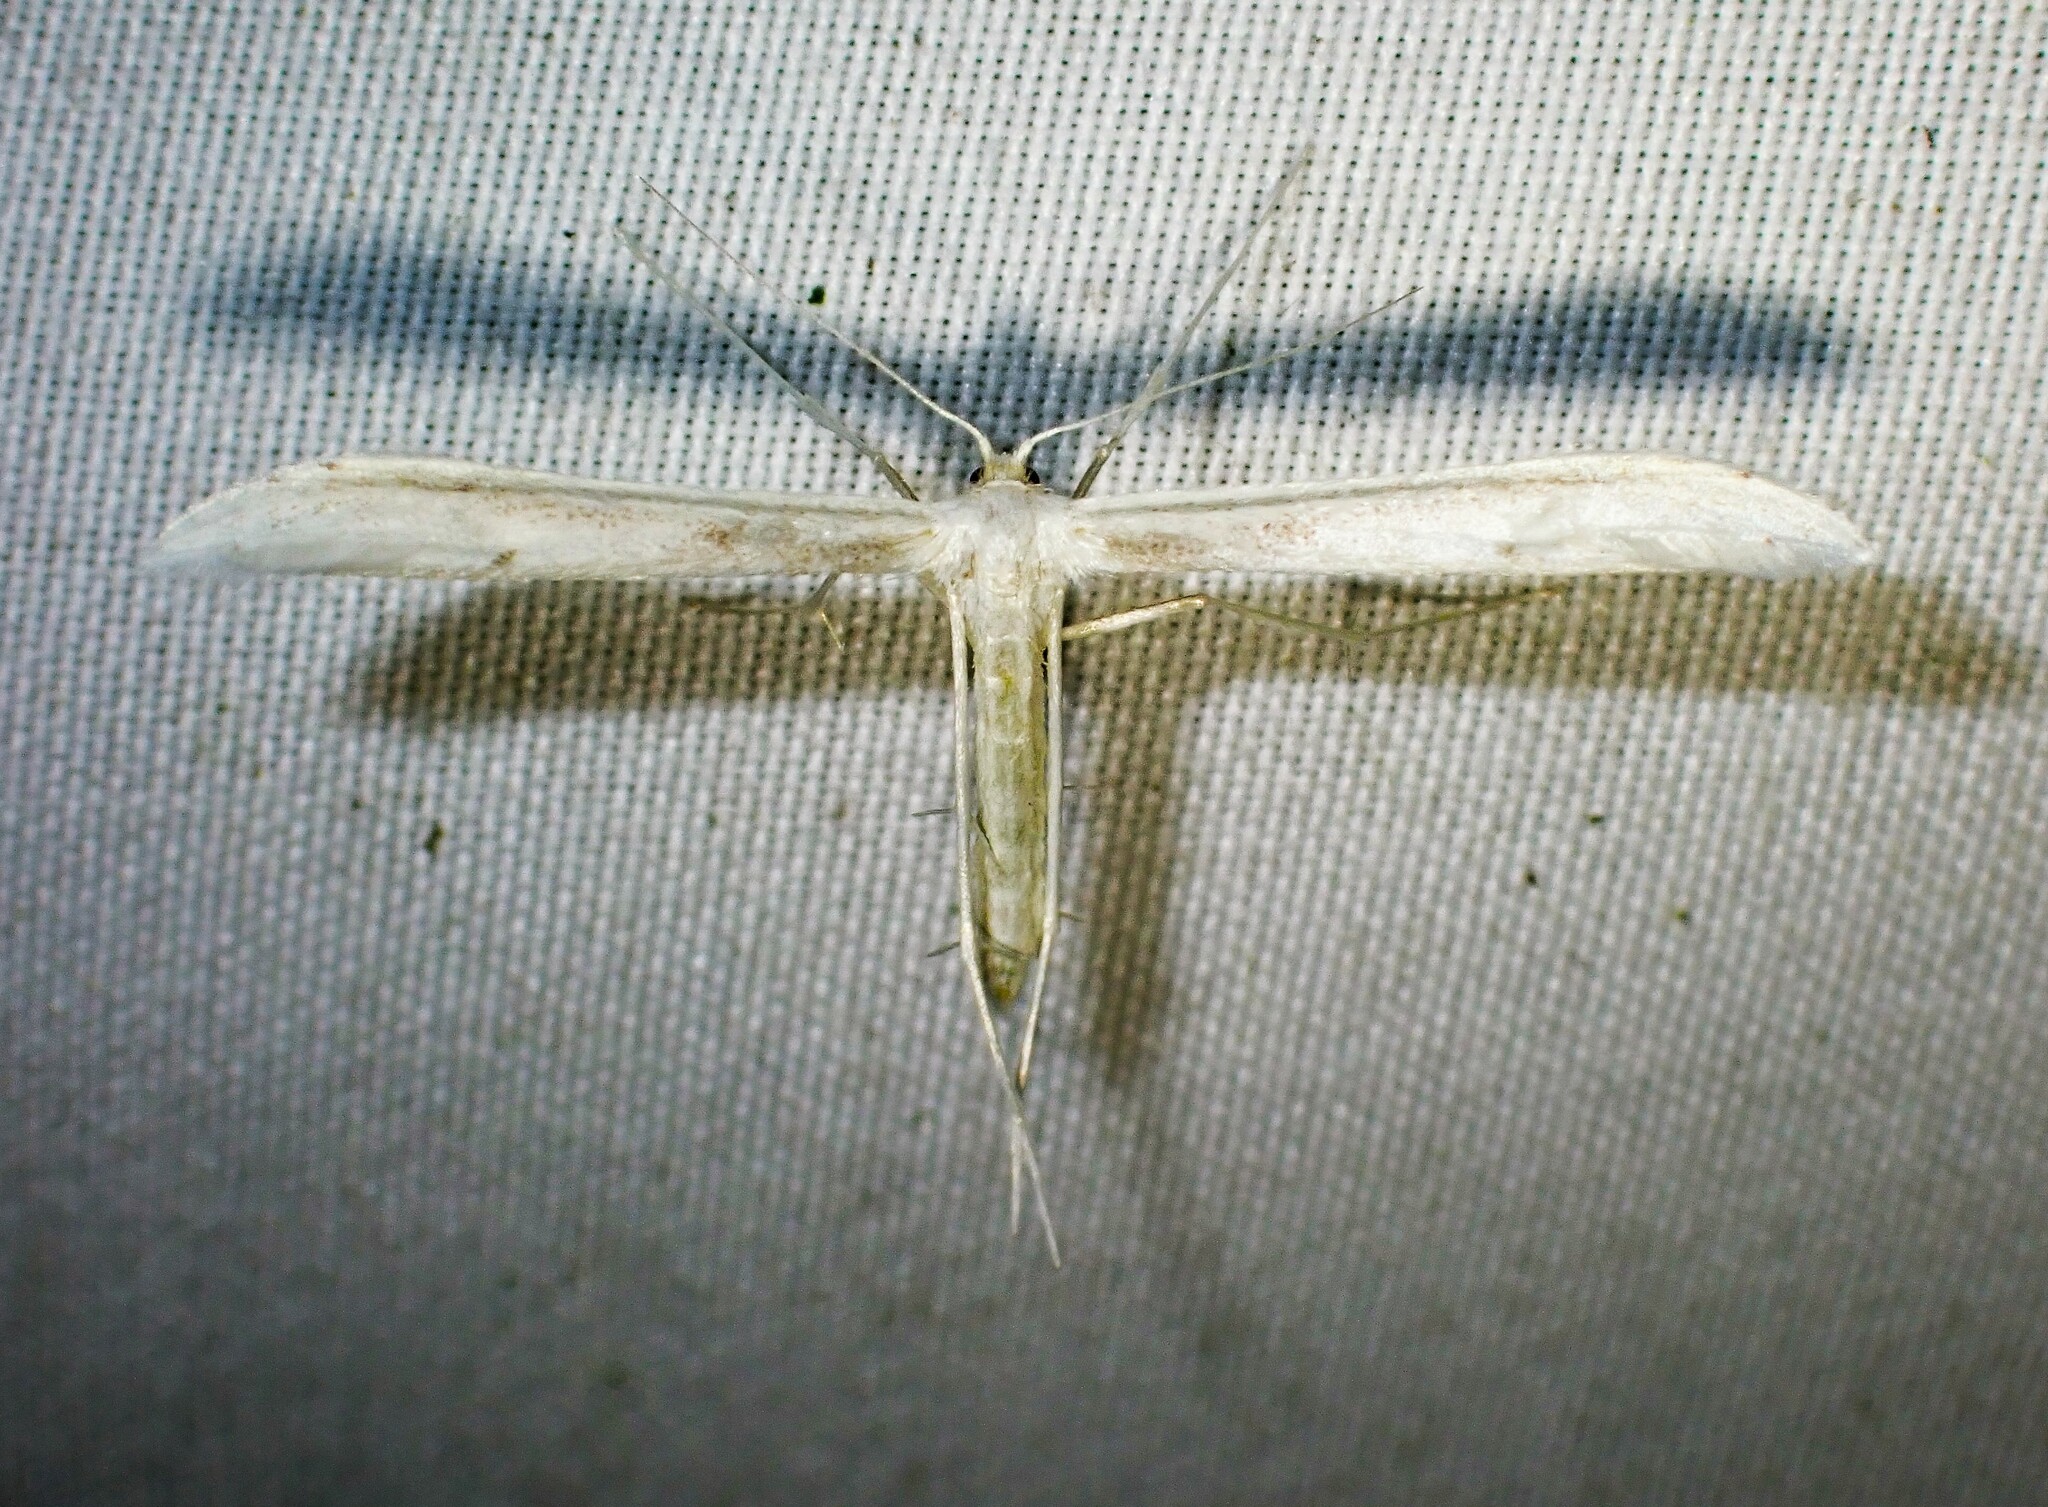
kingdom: Animalia
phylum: Arthropoda
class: Insecta
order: Lepidoptera
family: Pterophoridae
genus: Hellinsia
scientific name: Hellinsia homodactylus
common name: Plain plume moth
